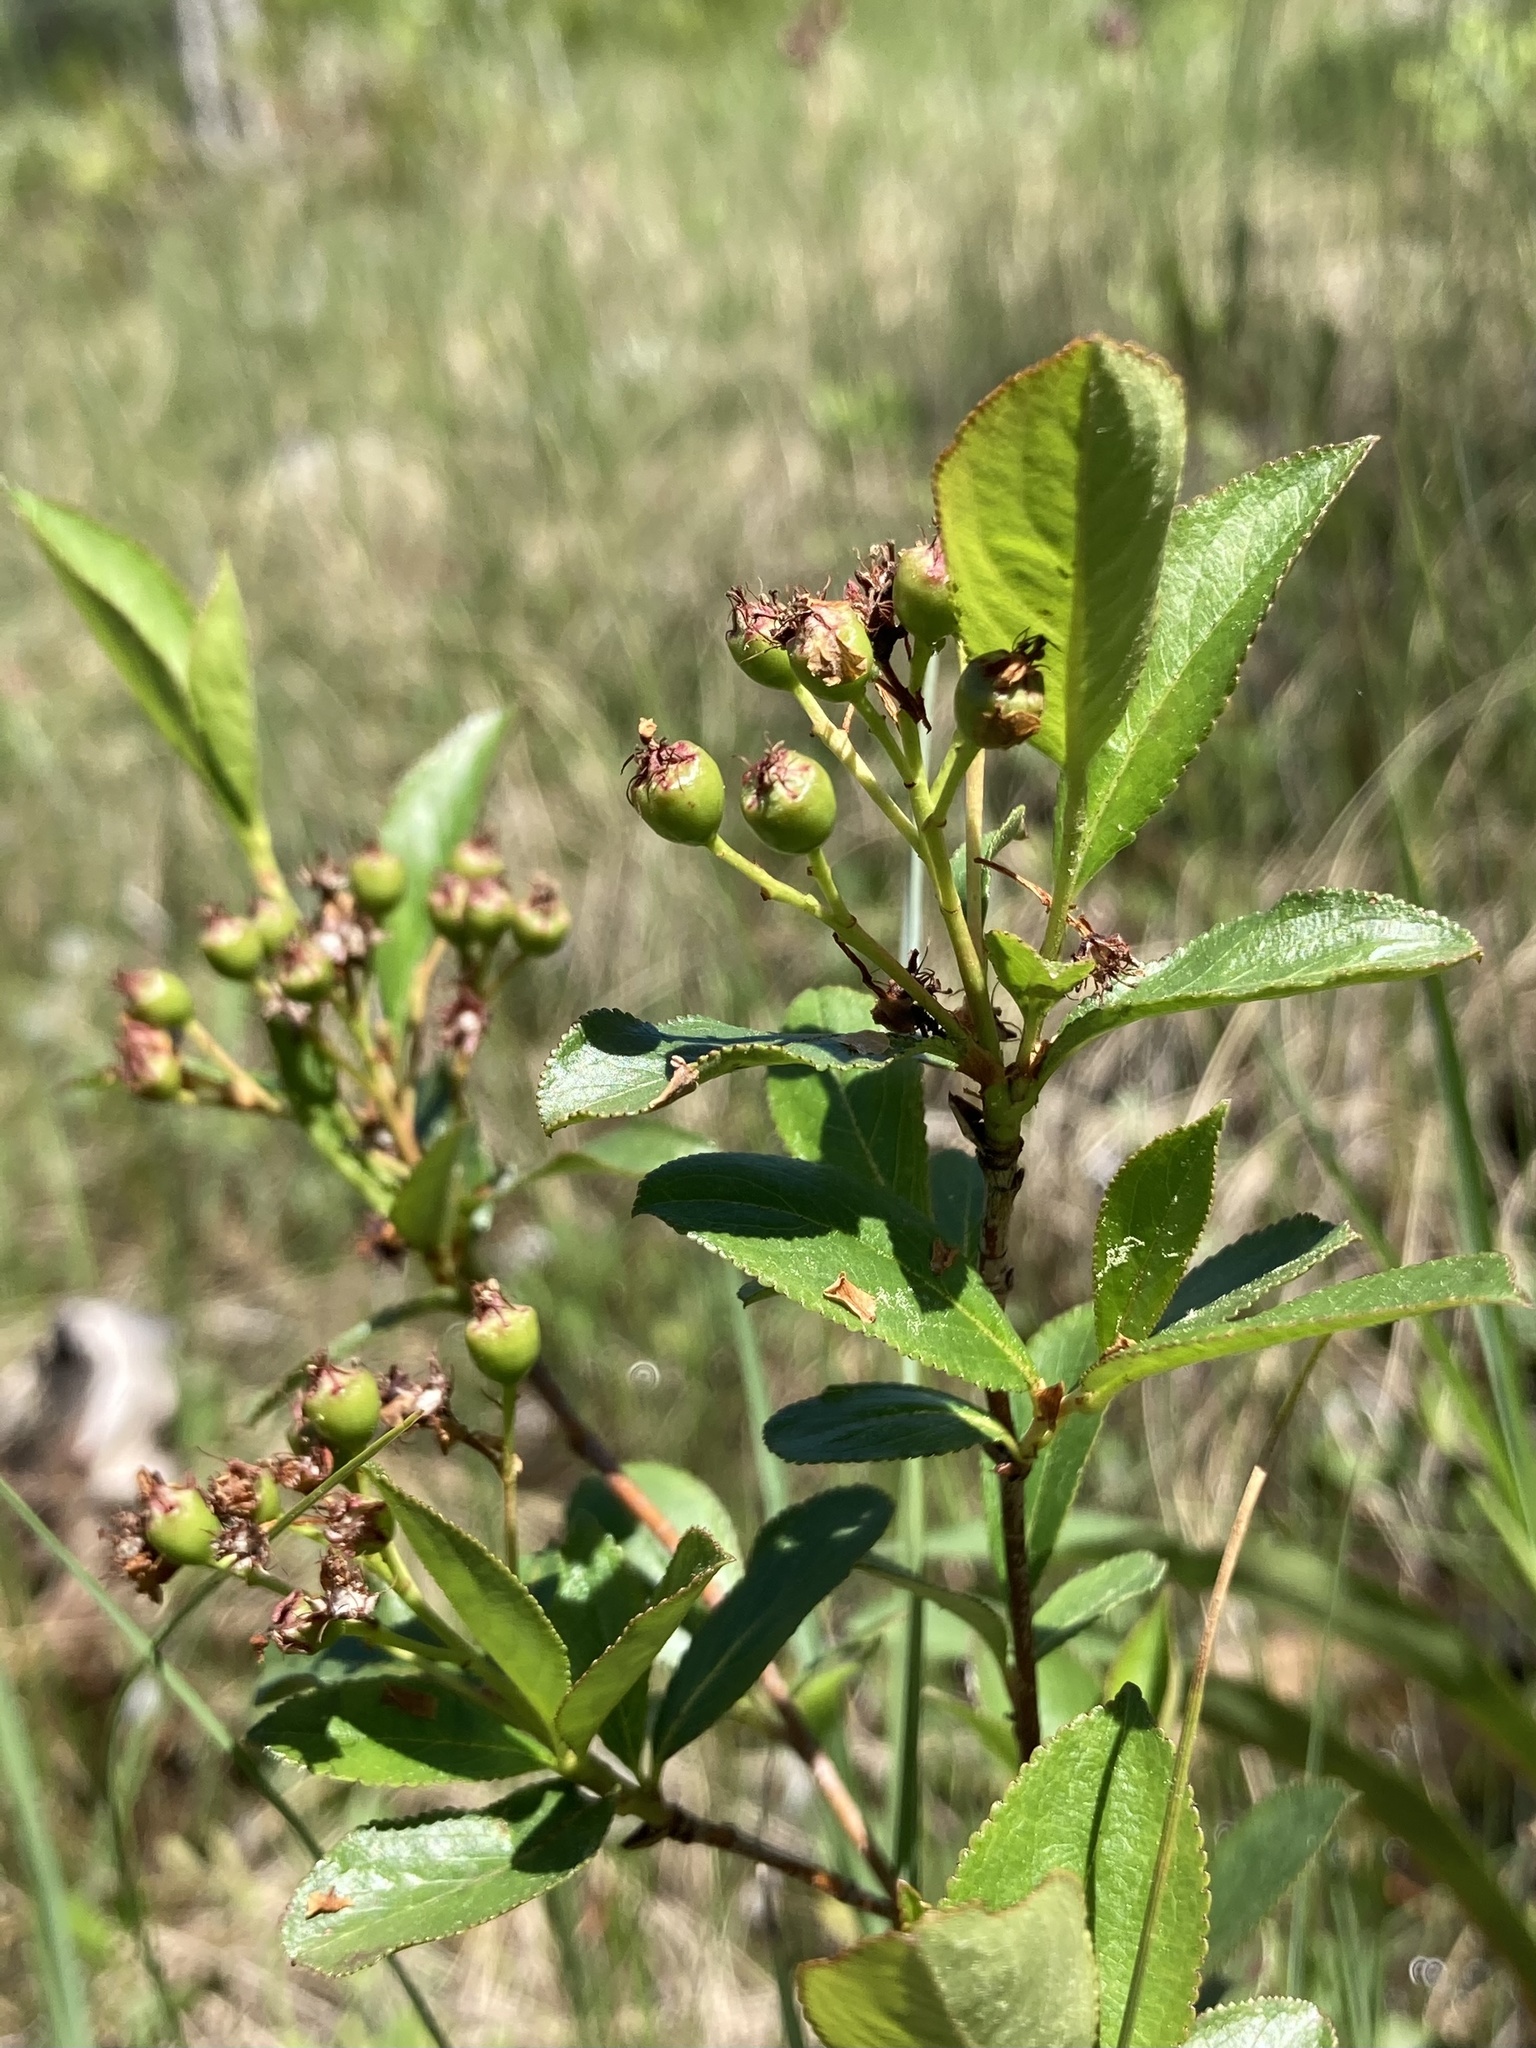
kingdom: Plantae
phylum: Tracheophyta
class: Magnoliopsida
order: Rosales
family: Rosaceae
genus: Aronia
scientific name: Aronia melanocarpa
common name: Black chokeberry
